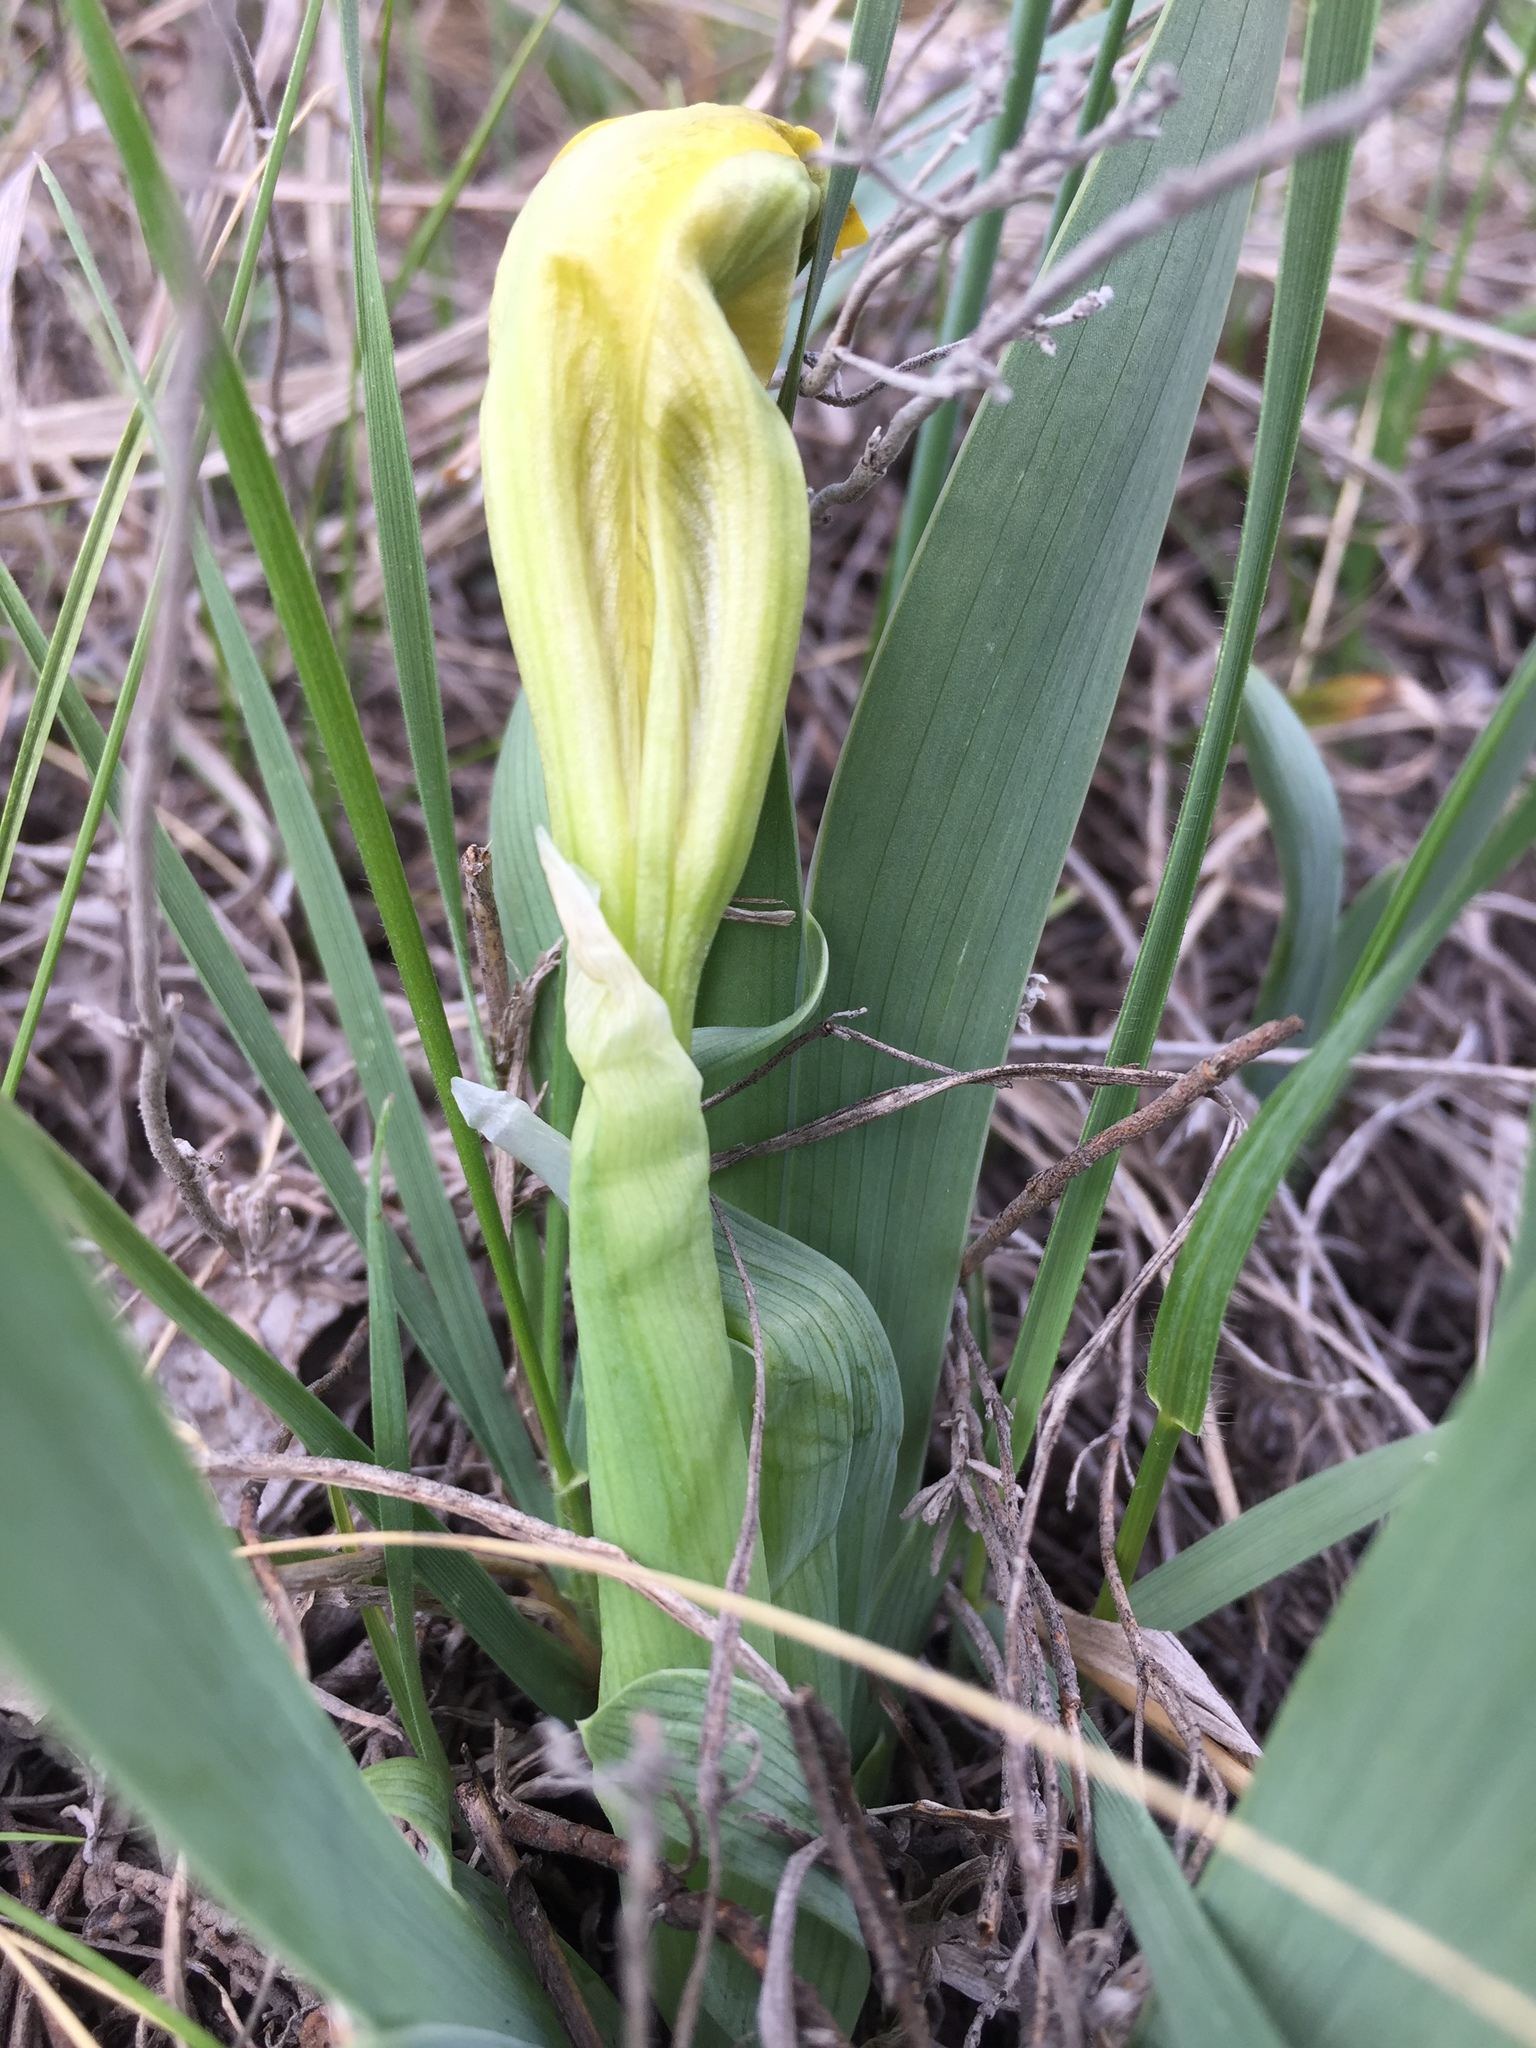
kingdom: Plantae
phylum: Tracheophyta
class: Liliopsida
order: Asparagales
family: Iridaceae
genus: Iris
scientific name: Iris pumila
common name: Dwarf iris
